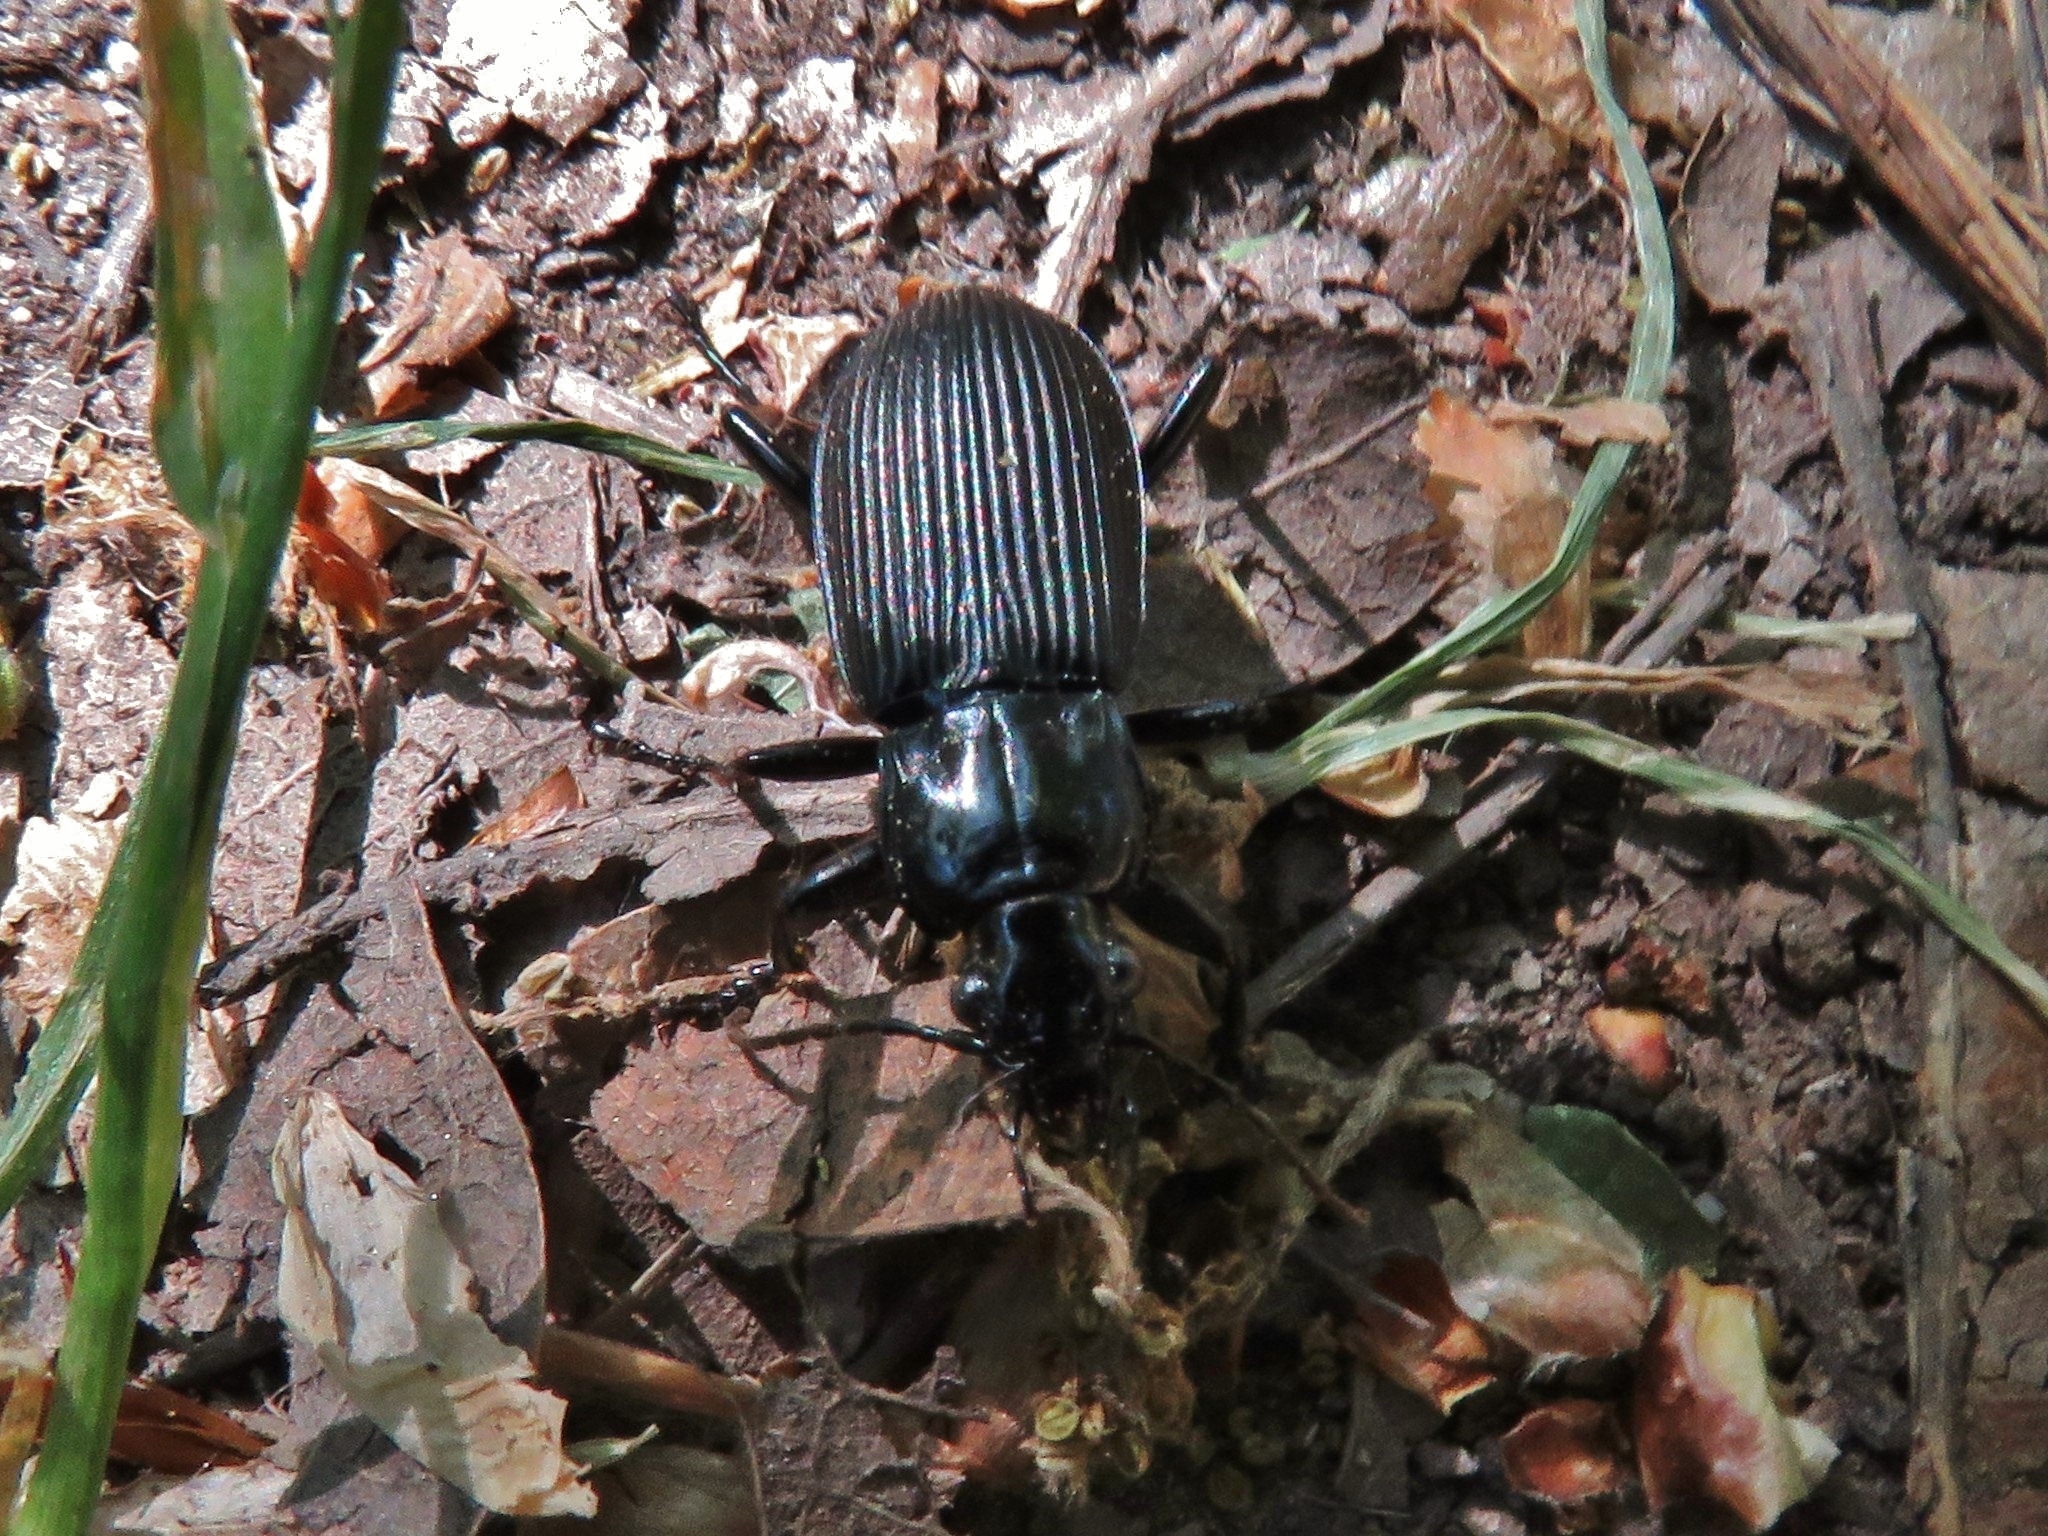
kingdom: Animalia
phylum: Arthropoda
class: Insecta
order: Coleoptera
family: Carabidae
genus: Pterostichus
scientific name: Pterostichus niger
